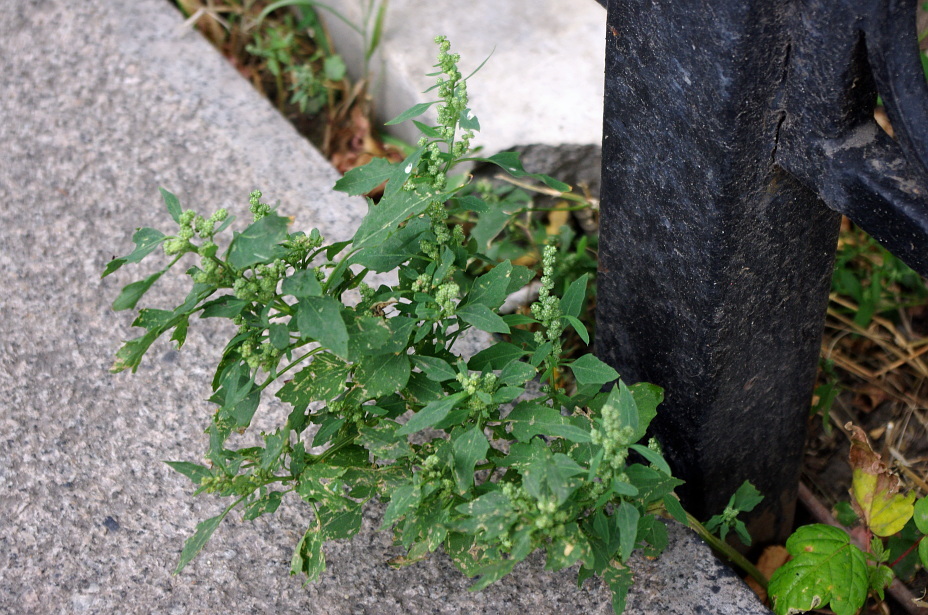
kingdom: Plantae
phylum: Tracheophyta
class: Magnoliopsida
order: Caryophyllales
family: Amaranthaceae
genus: Chenopodium
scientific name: Chenopodium album
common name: Fat-hen
